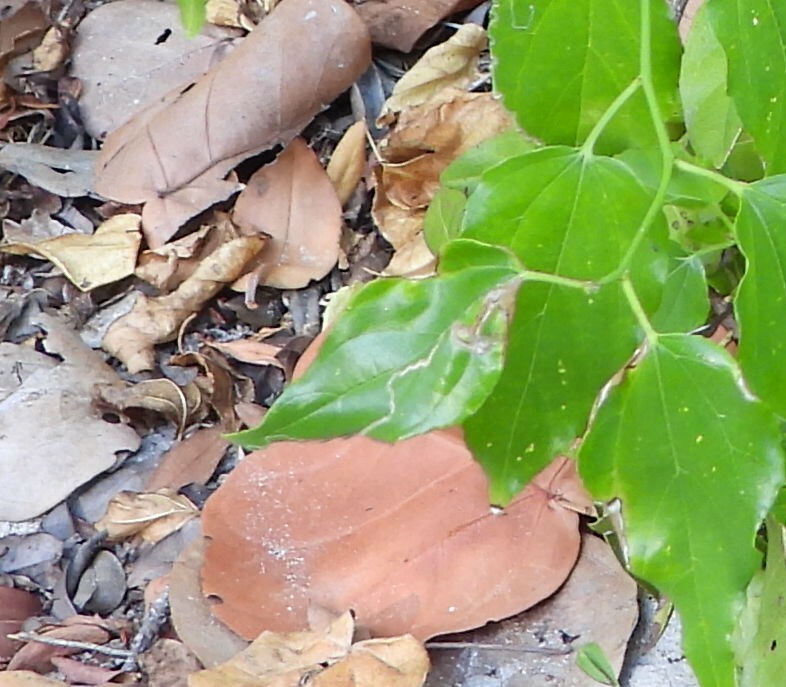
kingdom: Animalia
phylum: Arthropoda
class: Insecta
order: Diptera
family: Agromyzidae
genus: Liriomyza
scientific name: Liriomyza schmidti
